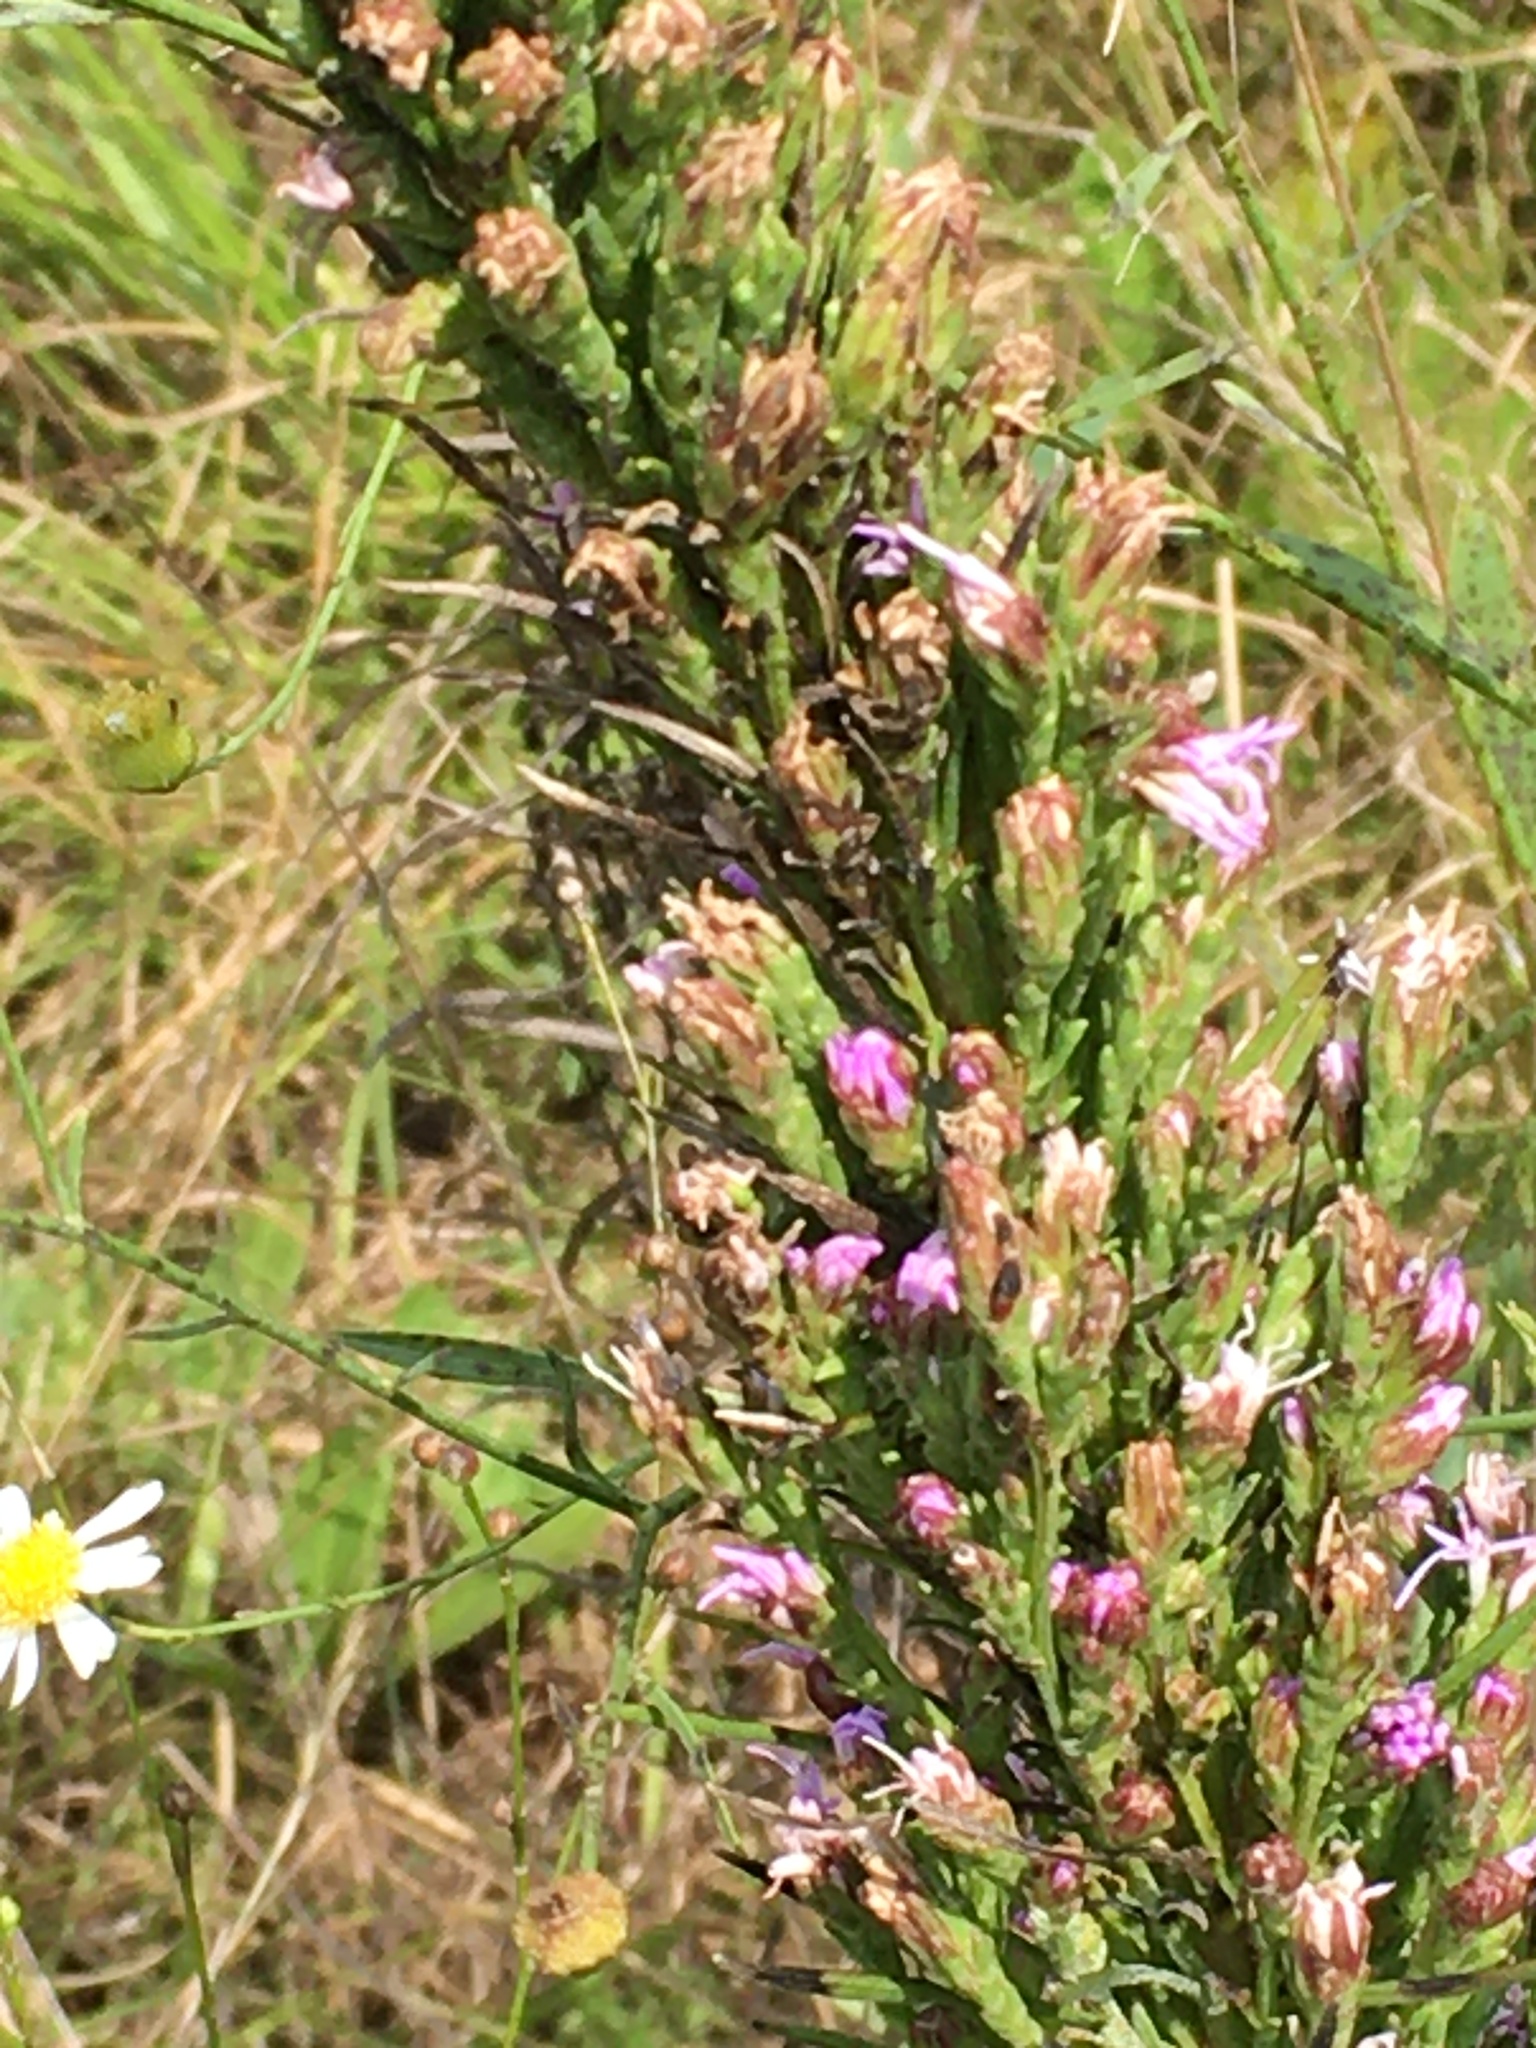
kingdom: Plantae
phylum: Tracheophyta
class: Magnoliopsida
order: Asterales
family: Asteraceae
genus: Liatris
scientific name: Liatris pilosa
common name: Grass-leaf gayfeather
